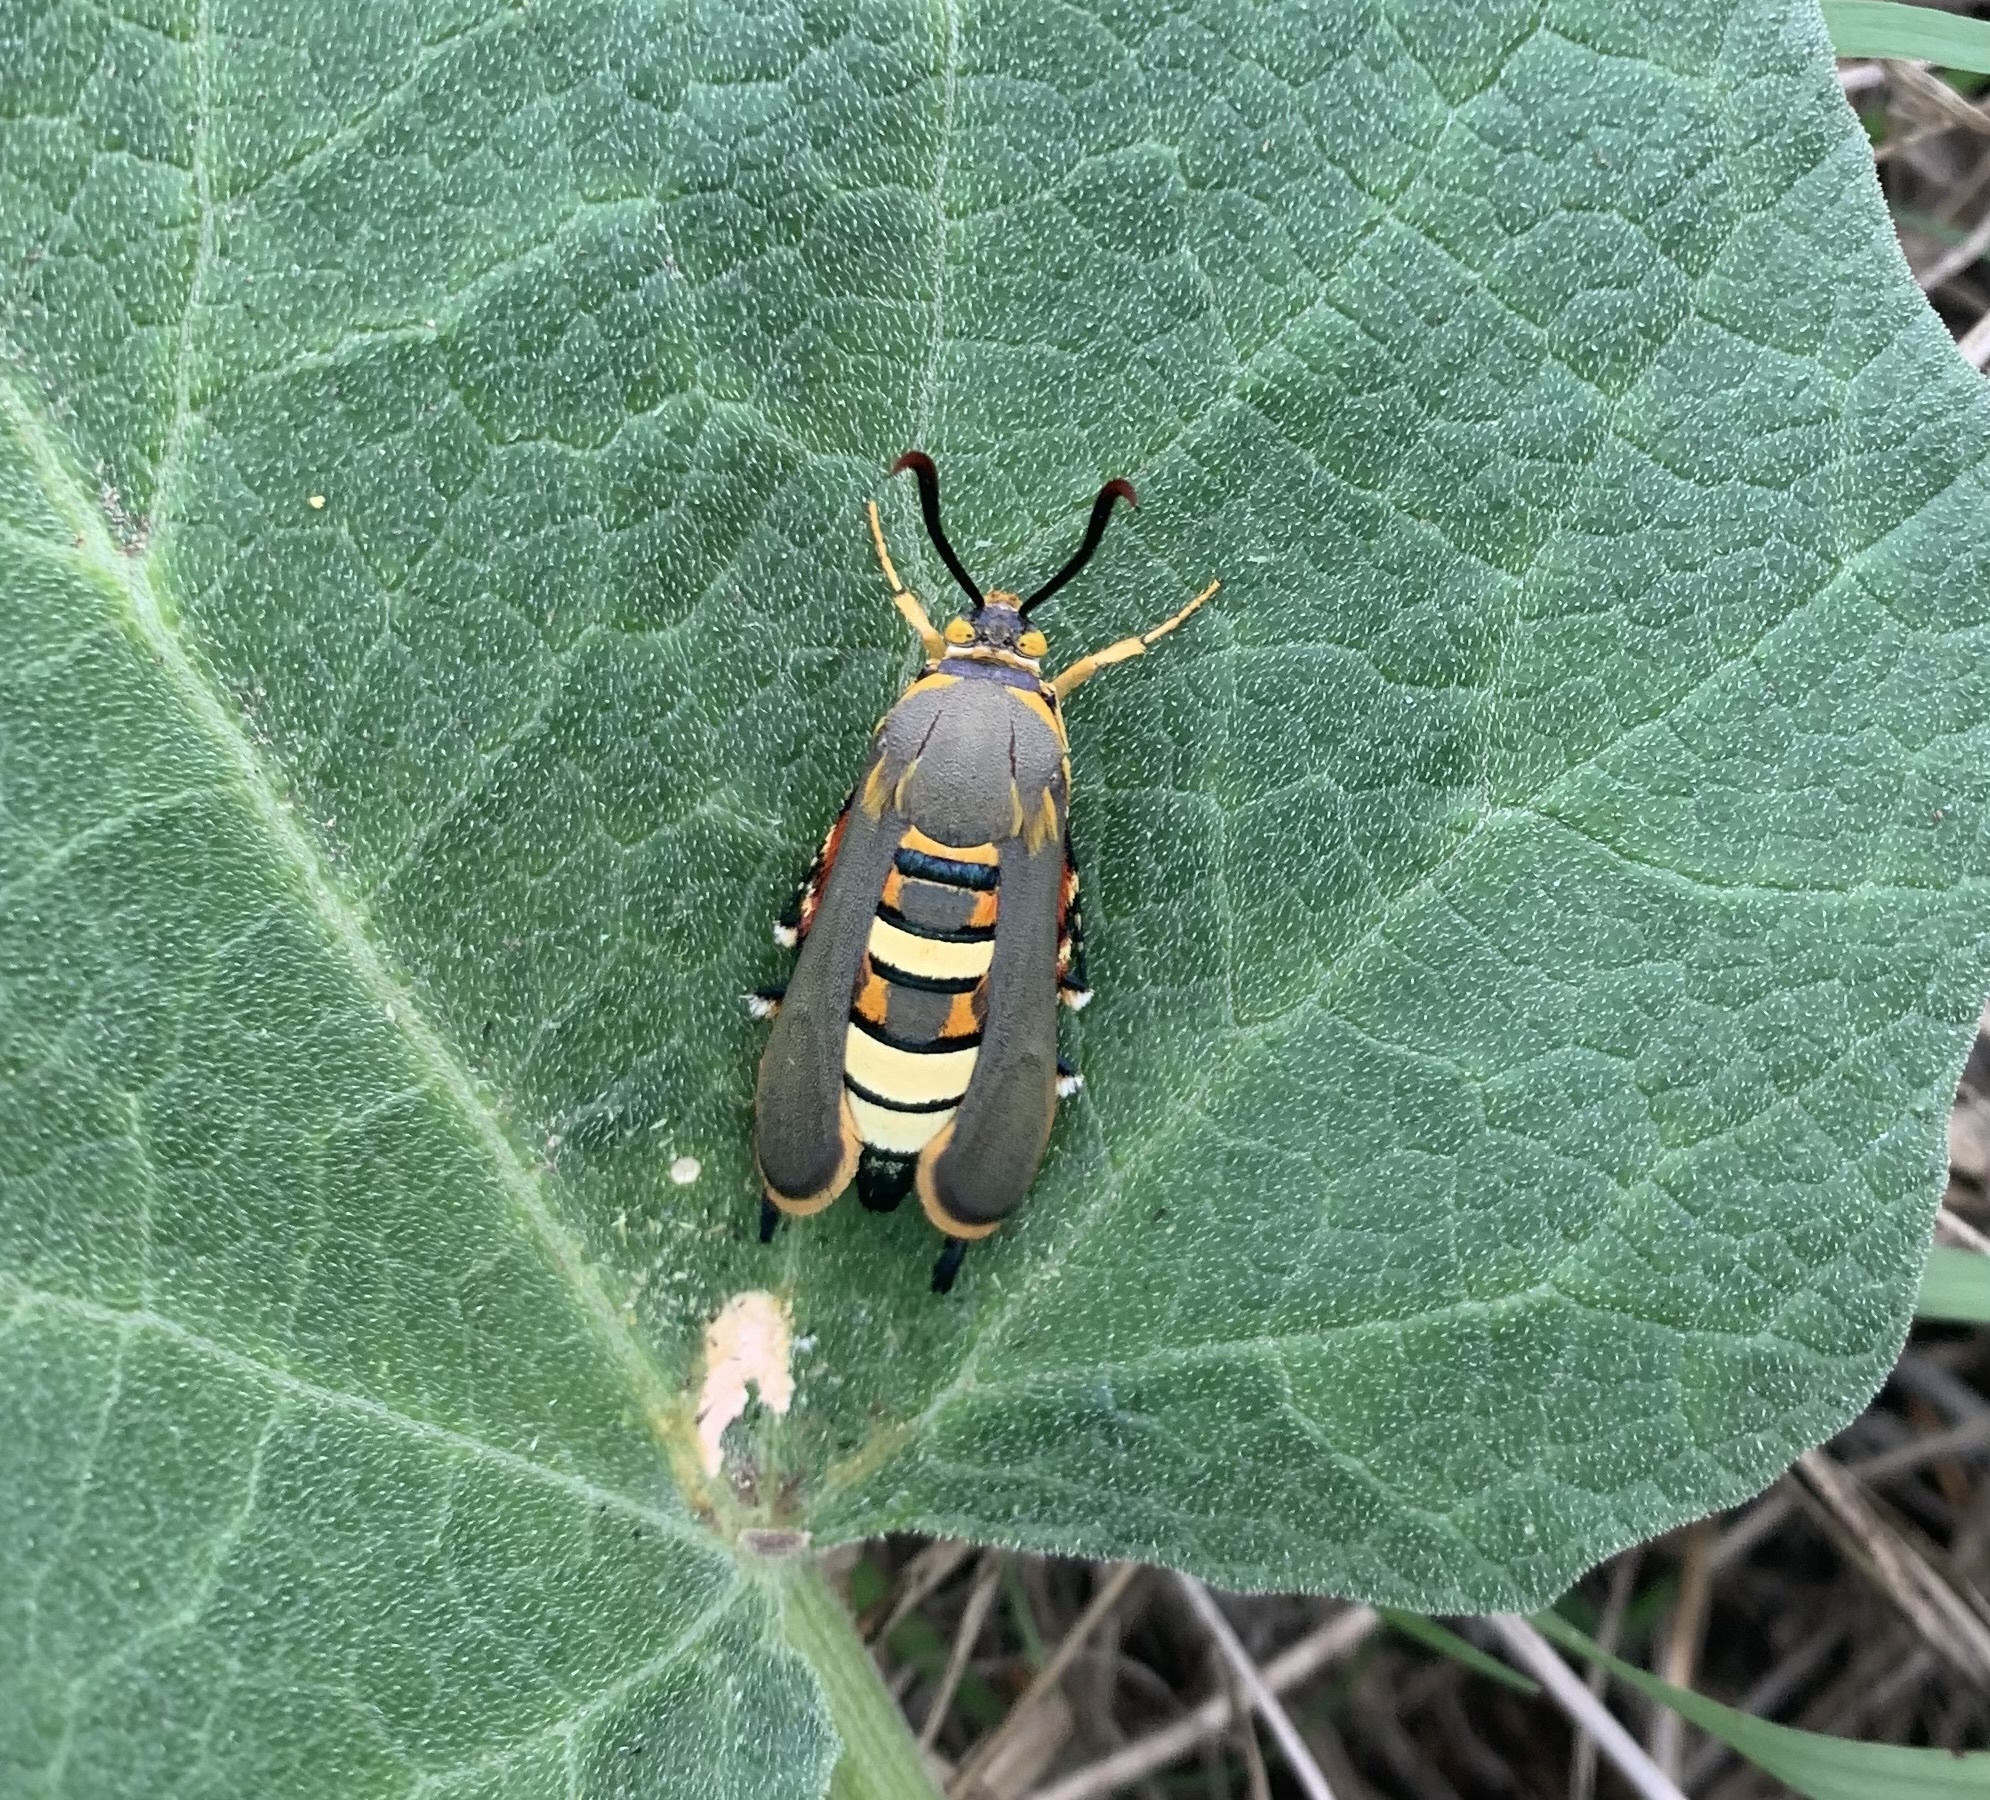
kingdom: Animalia
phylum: Arthropoda
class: Insecta
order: Lepidoptera
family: Sesiidae
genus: Eichlinia
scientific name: Eichlinia gloriosa
